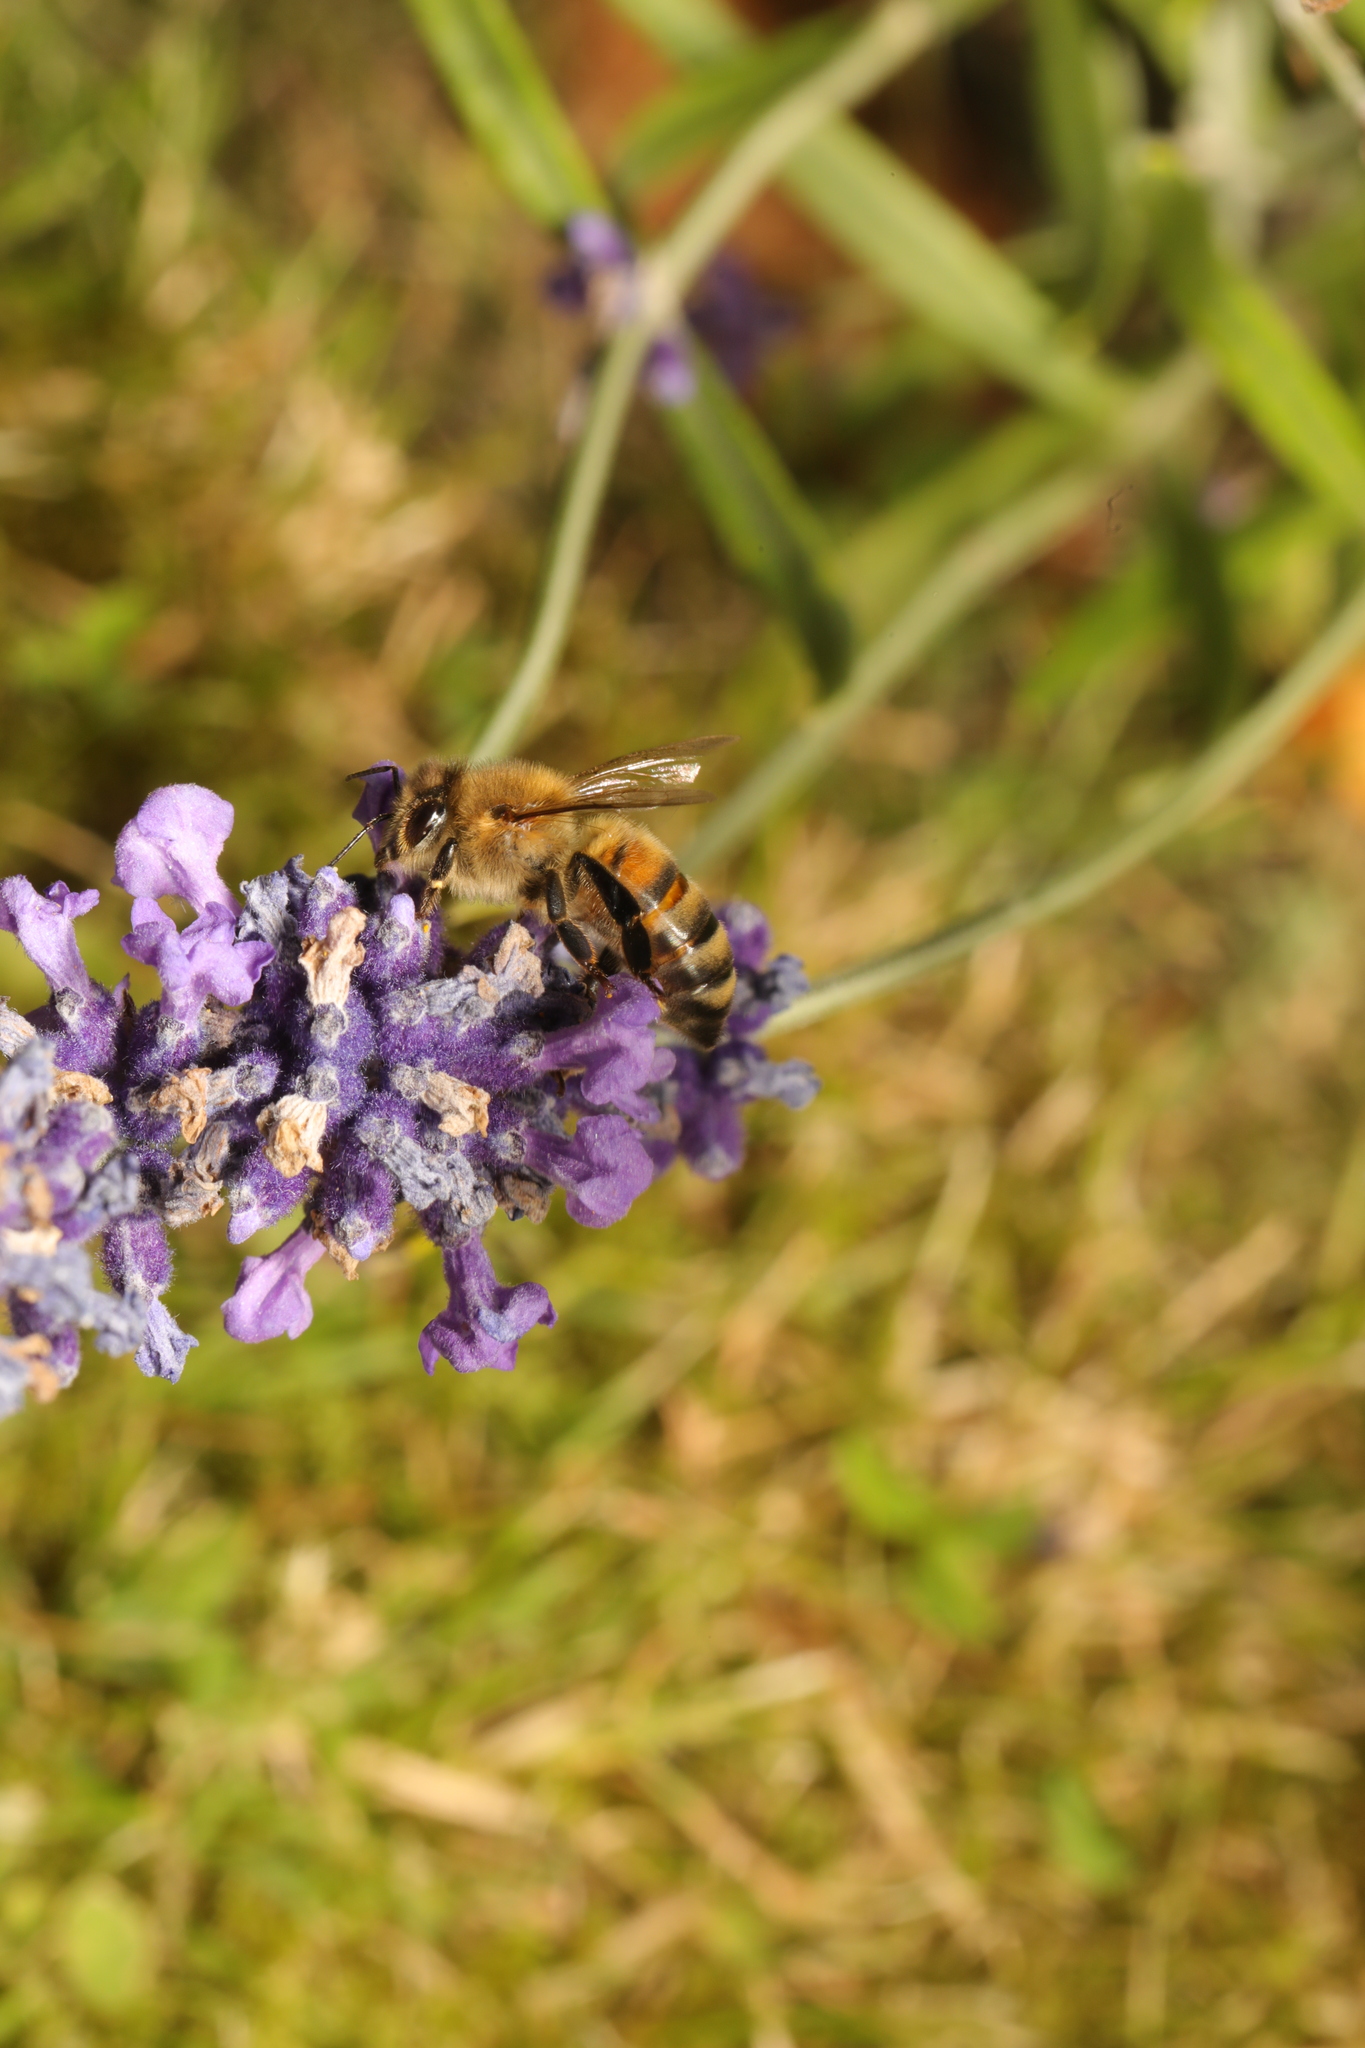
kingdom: Animalia
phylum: Arthropoda
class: Insecta
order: Hymenoptera
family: Apidae
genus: Apis
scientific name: Apis mellifera
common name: Honey bee
